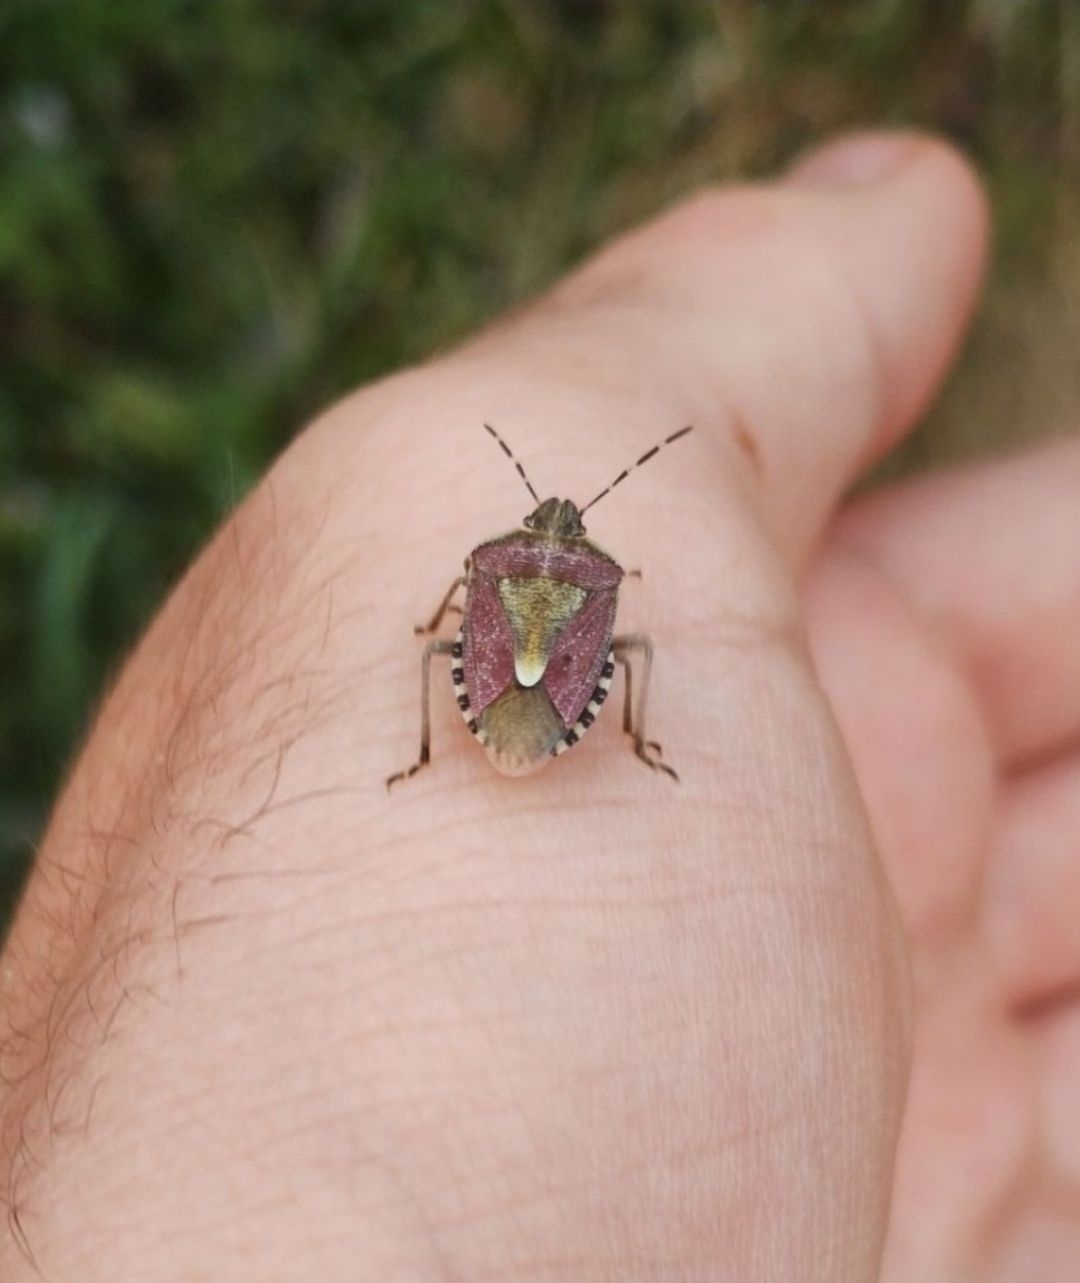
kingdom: Animalia
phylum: Arthropoda
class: Insecta
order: Hemiptera
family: Pentatomidae
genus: Dolycoris
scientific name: Dolycoris baccarum
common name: Sloe bug
